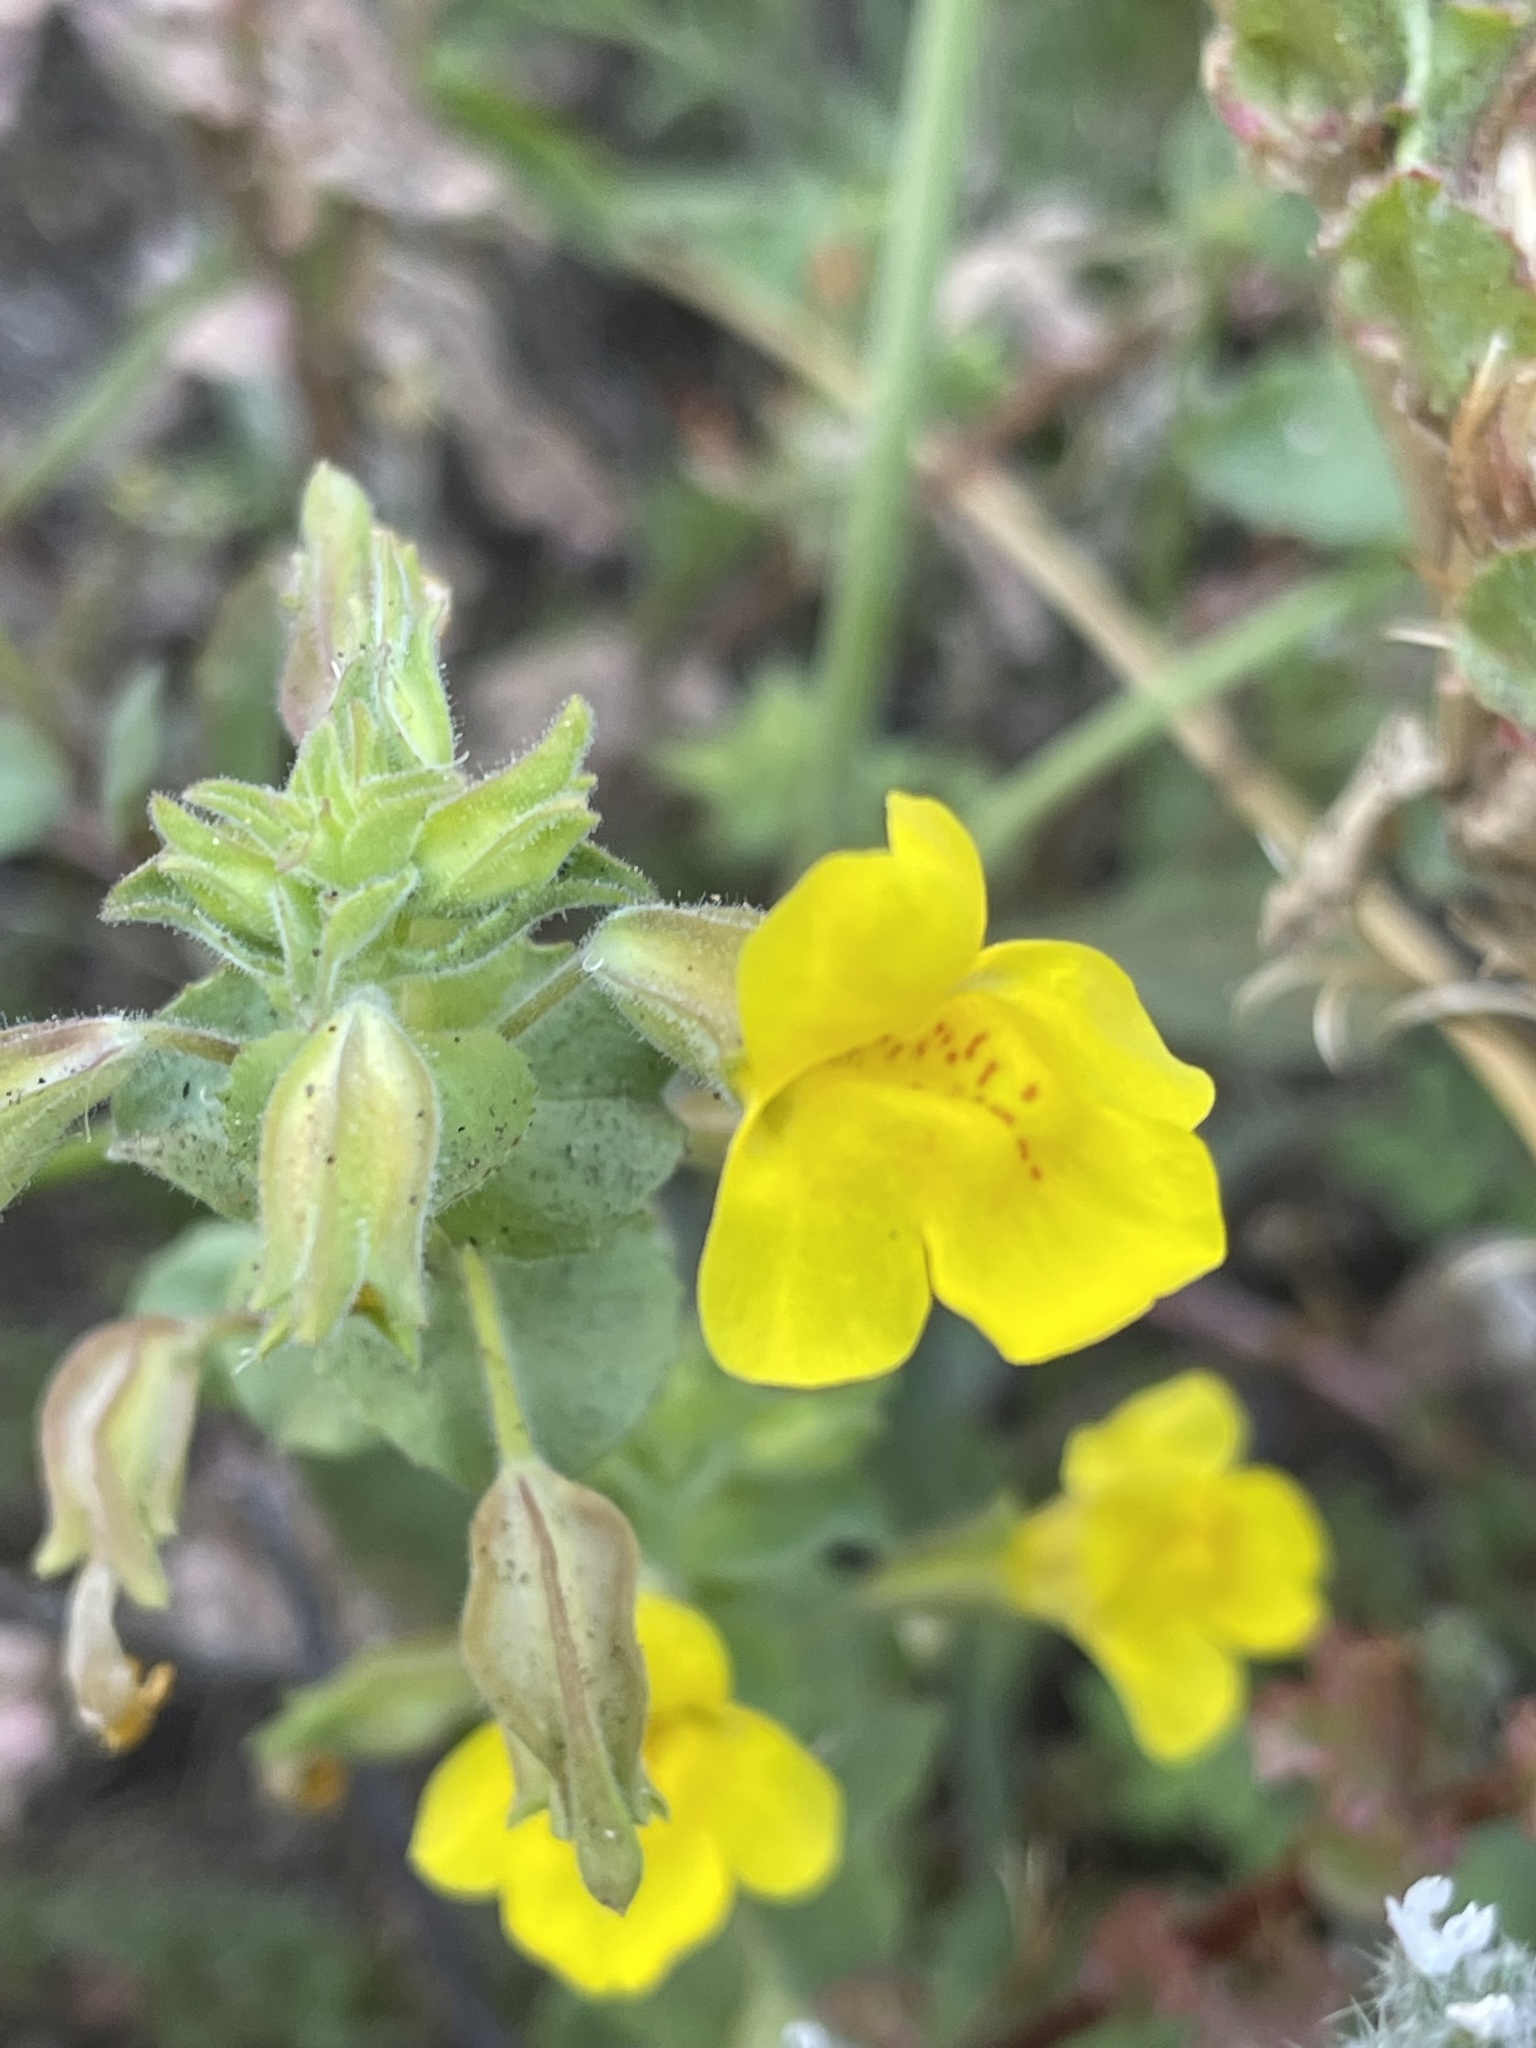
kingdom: Plantae
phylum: Tracheophyta
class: Magnoliopsida
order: Lamiales
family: Phrymaceae
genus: Erythranthe
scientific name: Erythranthe guttata
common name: Monkeyflower
